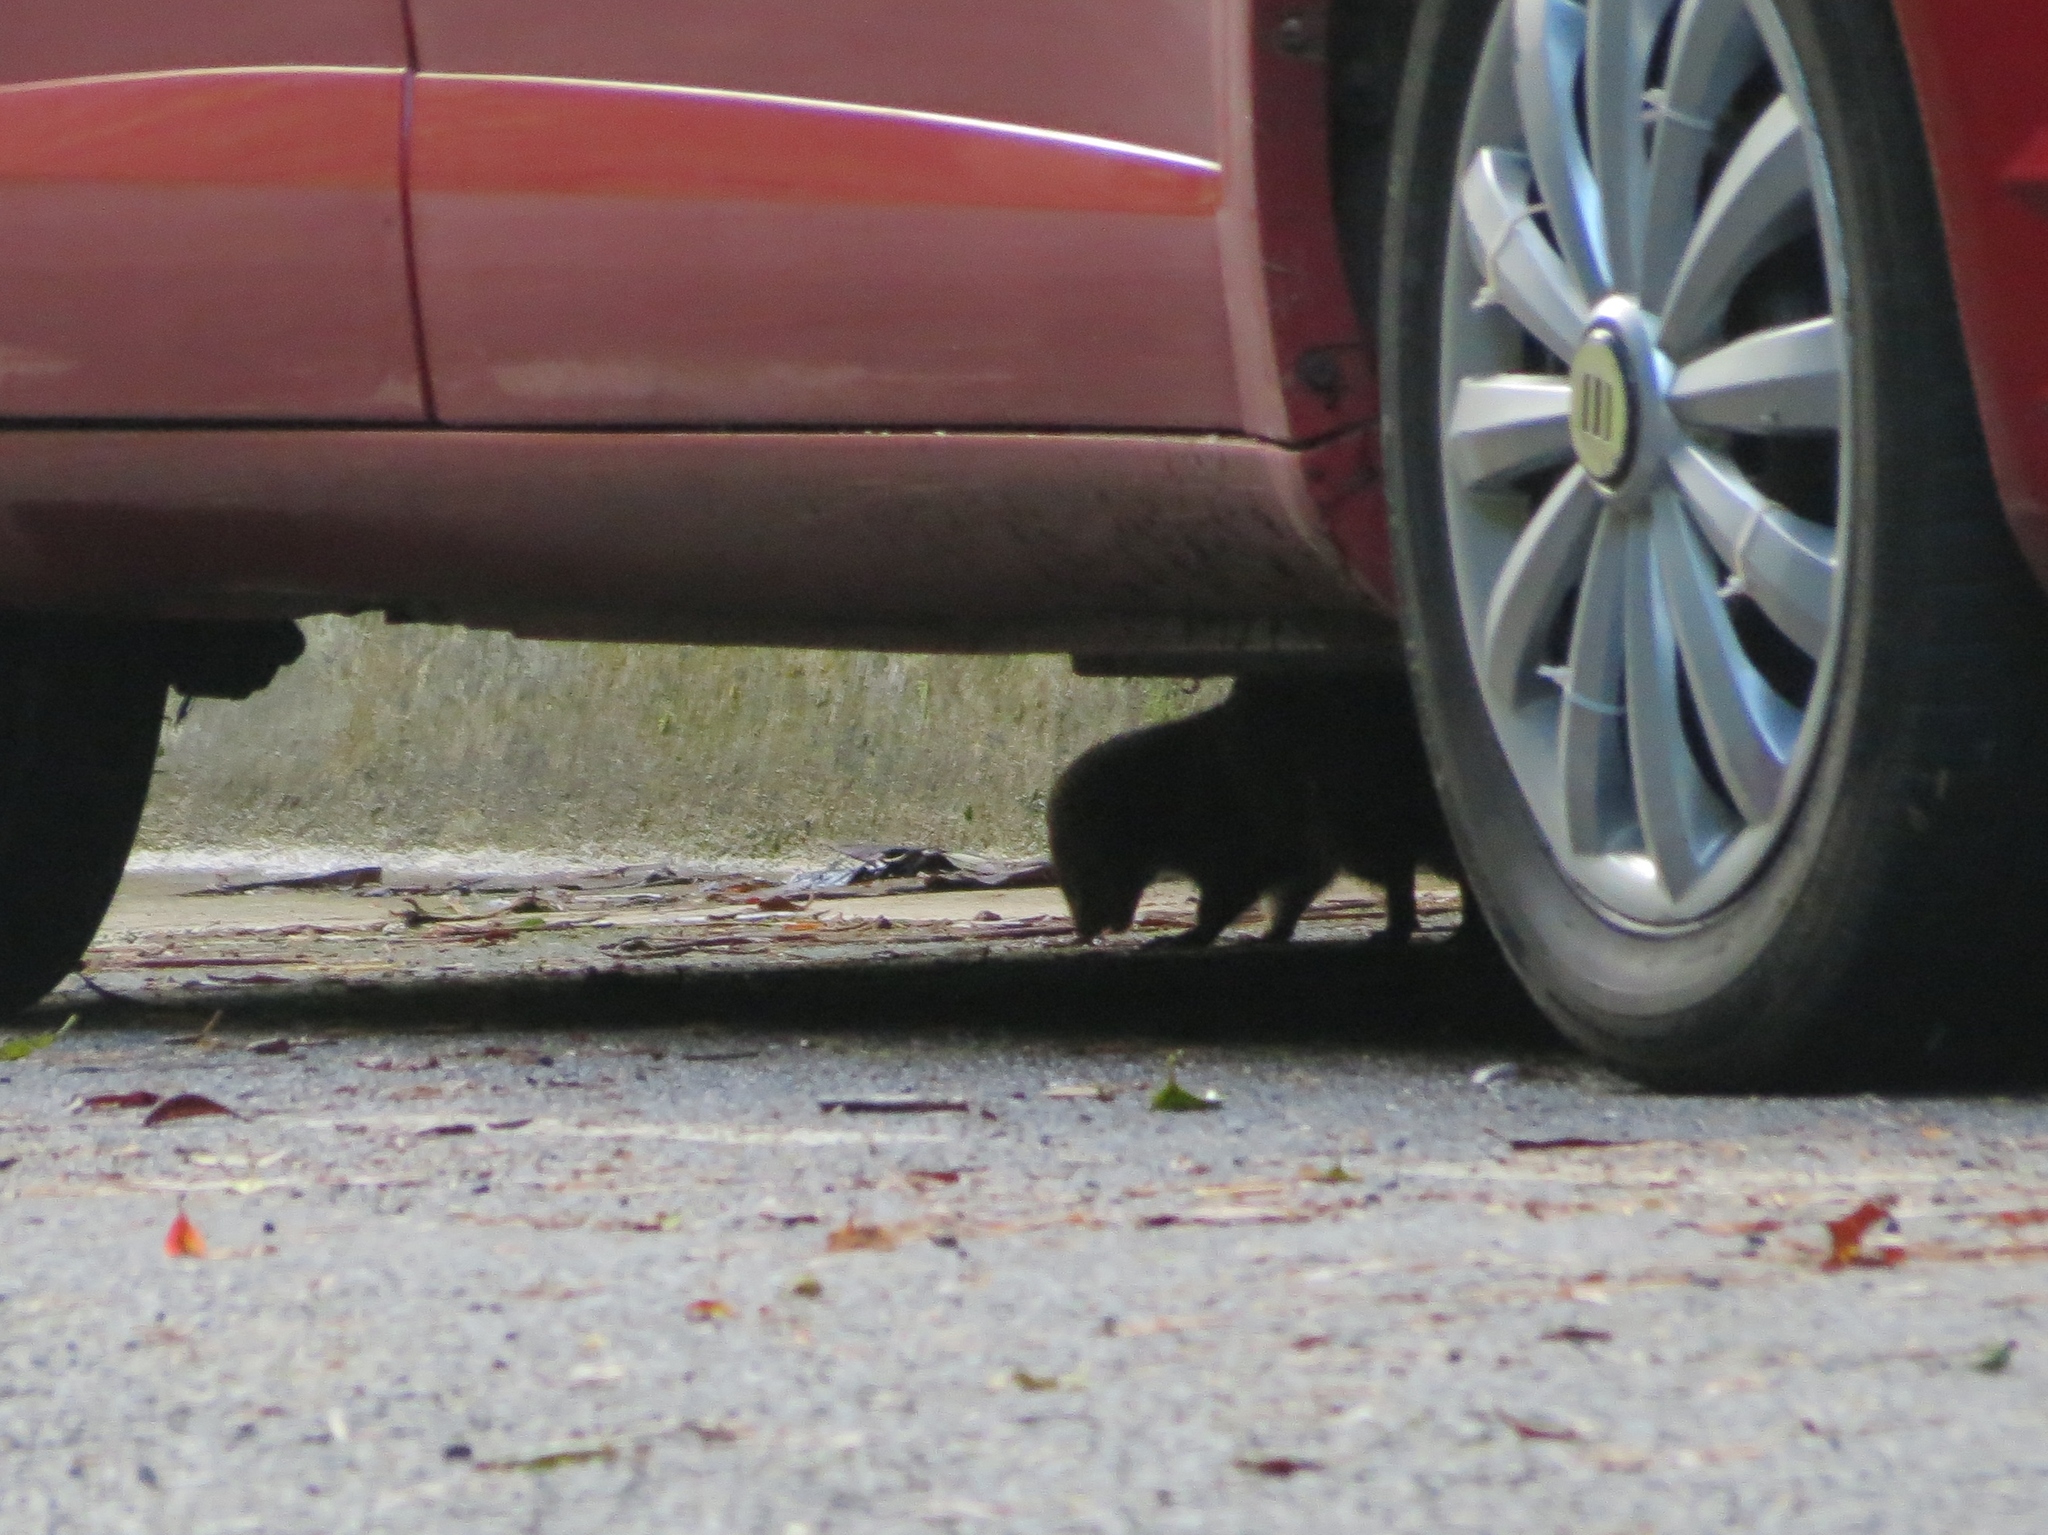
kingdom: Animalia
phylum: Chordata
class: Mammalia
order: Carnivora
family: Herpestidae
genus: Herpestes
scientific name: Herpestes javanicus
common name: Small asian mongoose
